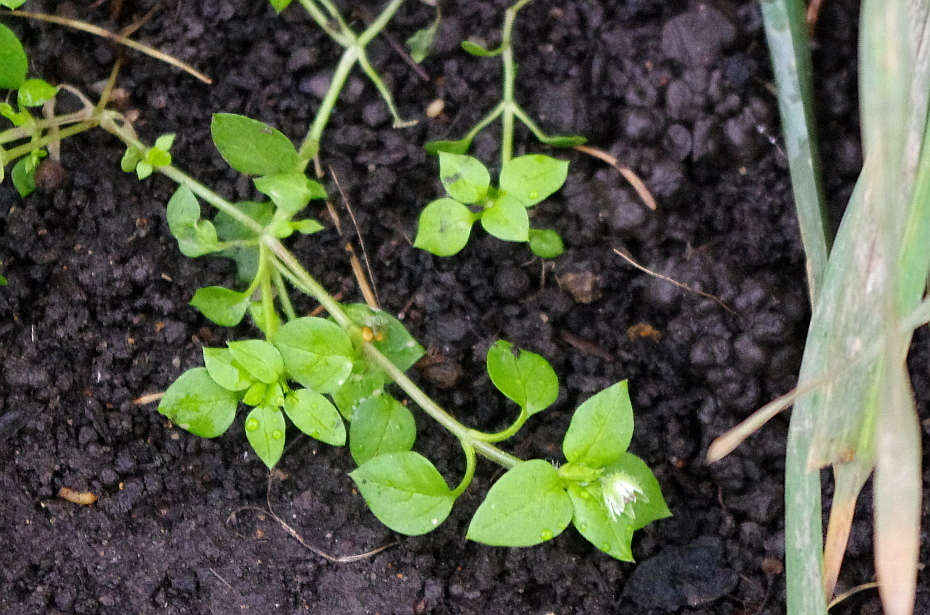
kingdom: Plantae
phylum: Tracheophyta
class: Magnoliopsida
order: Caryophyllales
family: Caryophyllaceae
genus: Stellaria
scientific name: Stellaria media
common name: Common chickweed
